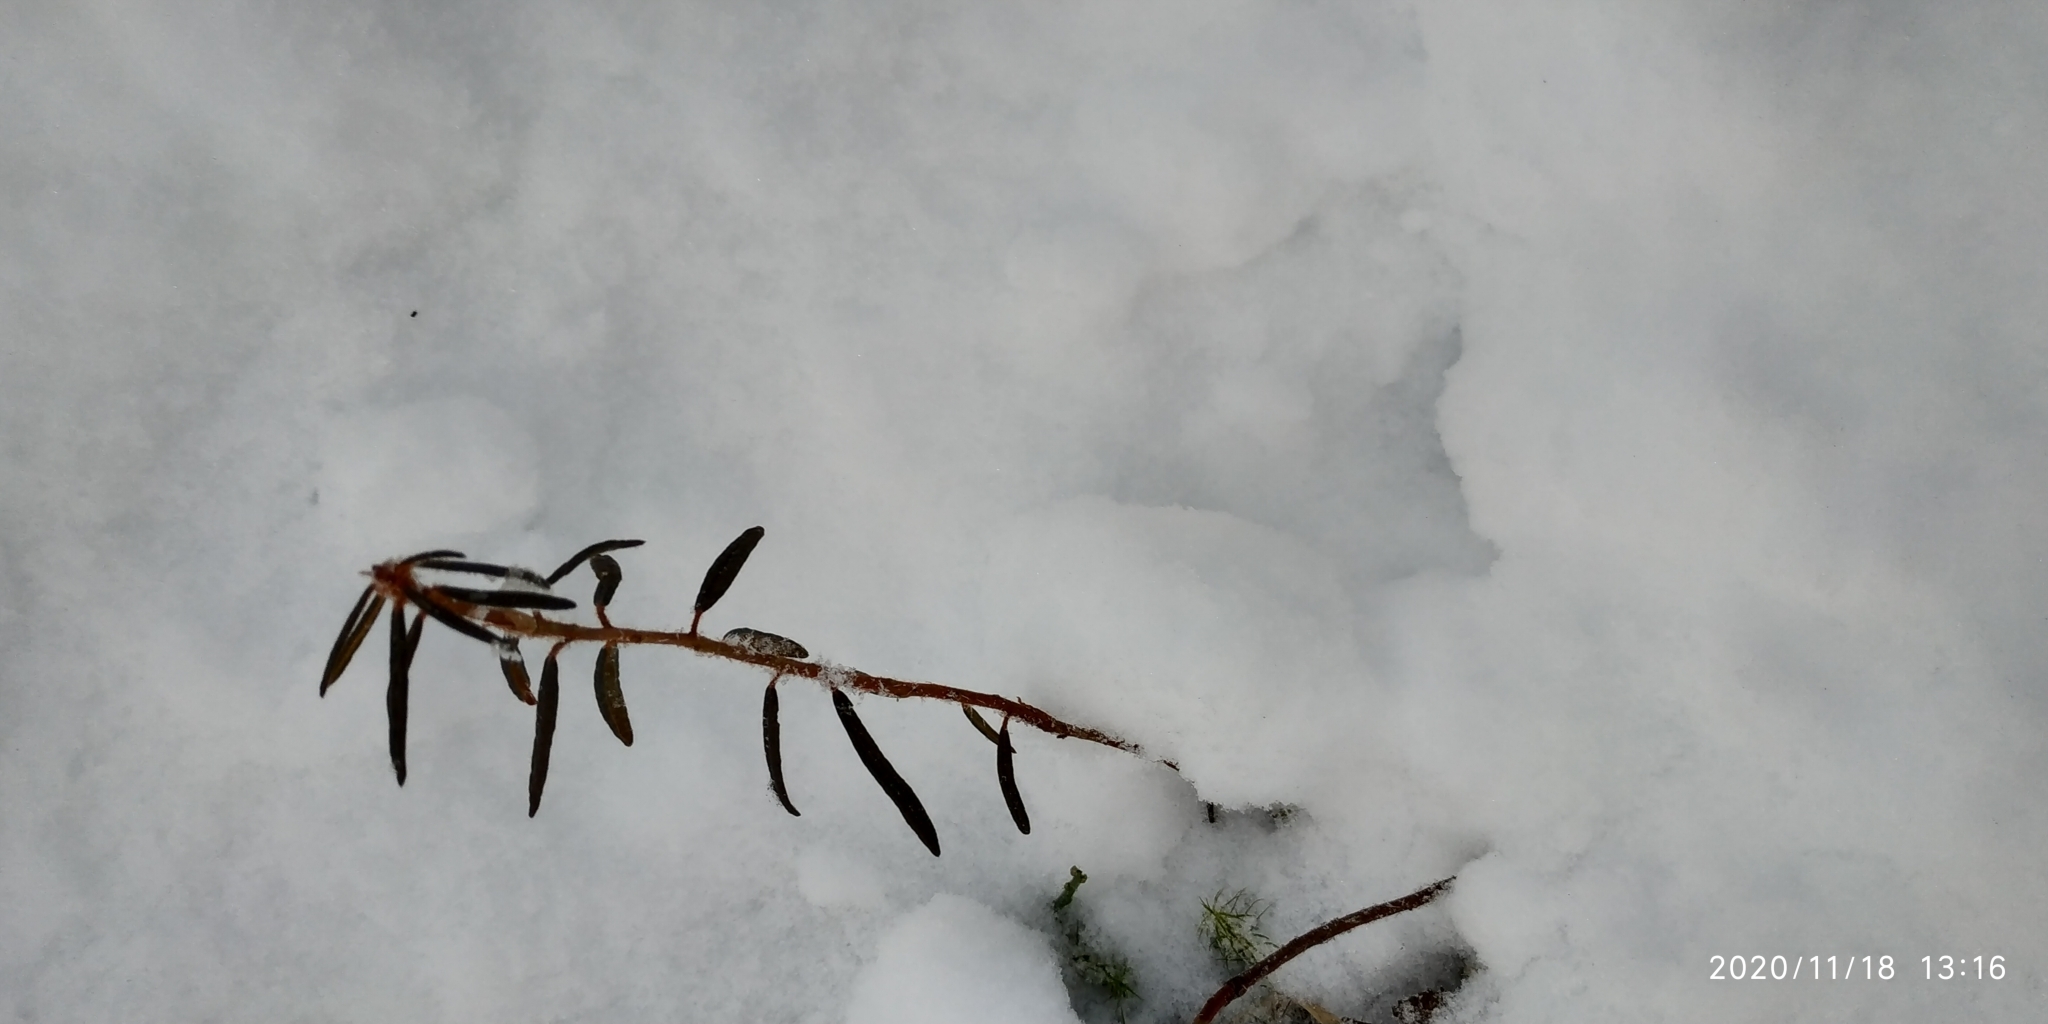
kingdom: Plantae
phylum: Tracheophyta
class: Magnoliopsida
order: Ericales
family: Ericaceae
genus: Rhododendron
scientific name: Rhododendron tomentosum
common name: Marsh labrador tea
